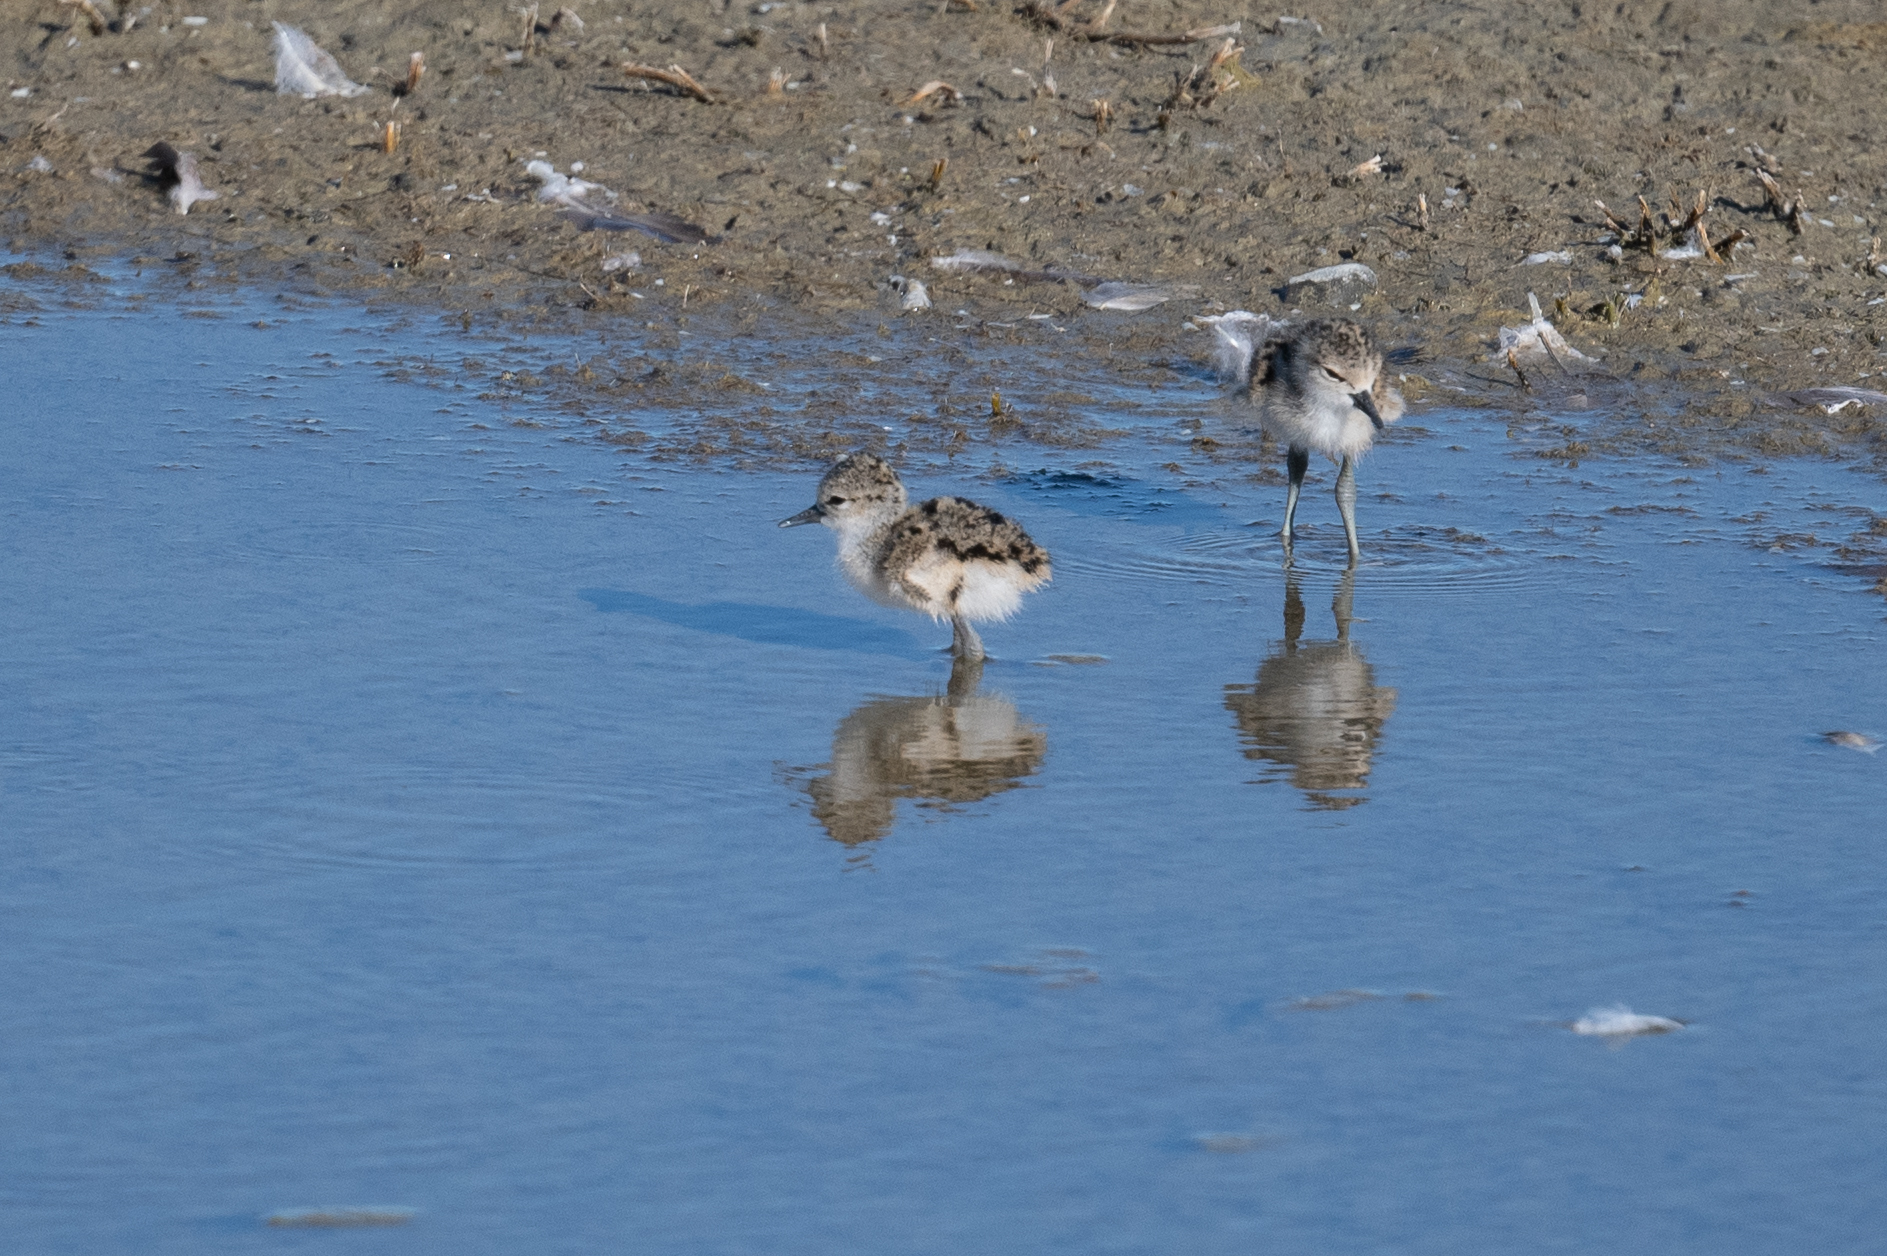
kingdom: Animalia
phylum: Chordata
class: Aves
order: Charadriiformes
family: Recurvirostridae
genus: Himantopus
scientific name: Himantopus mexicanus
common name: Black-necked stilt
